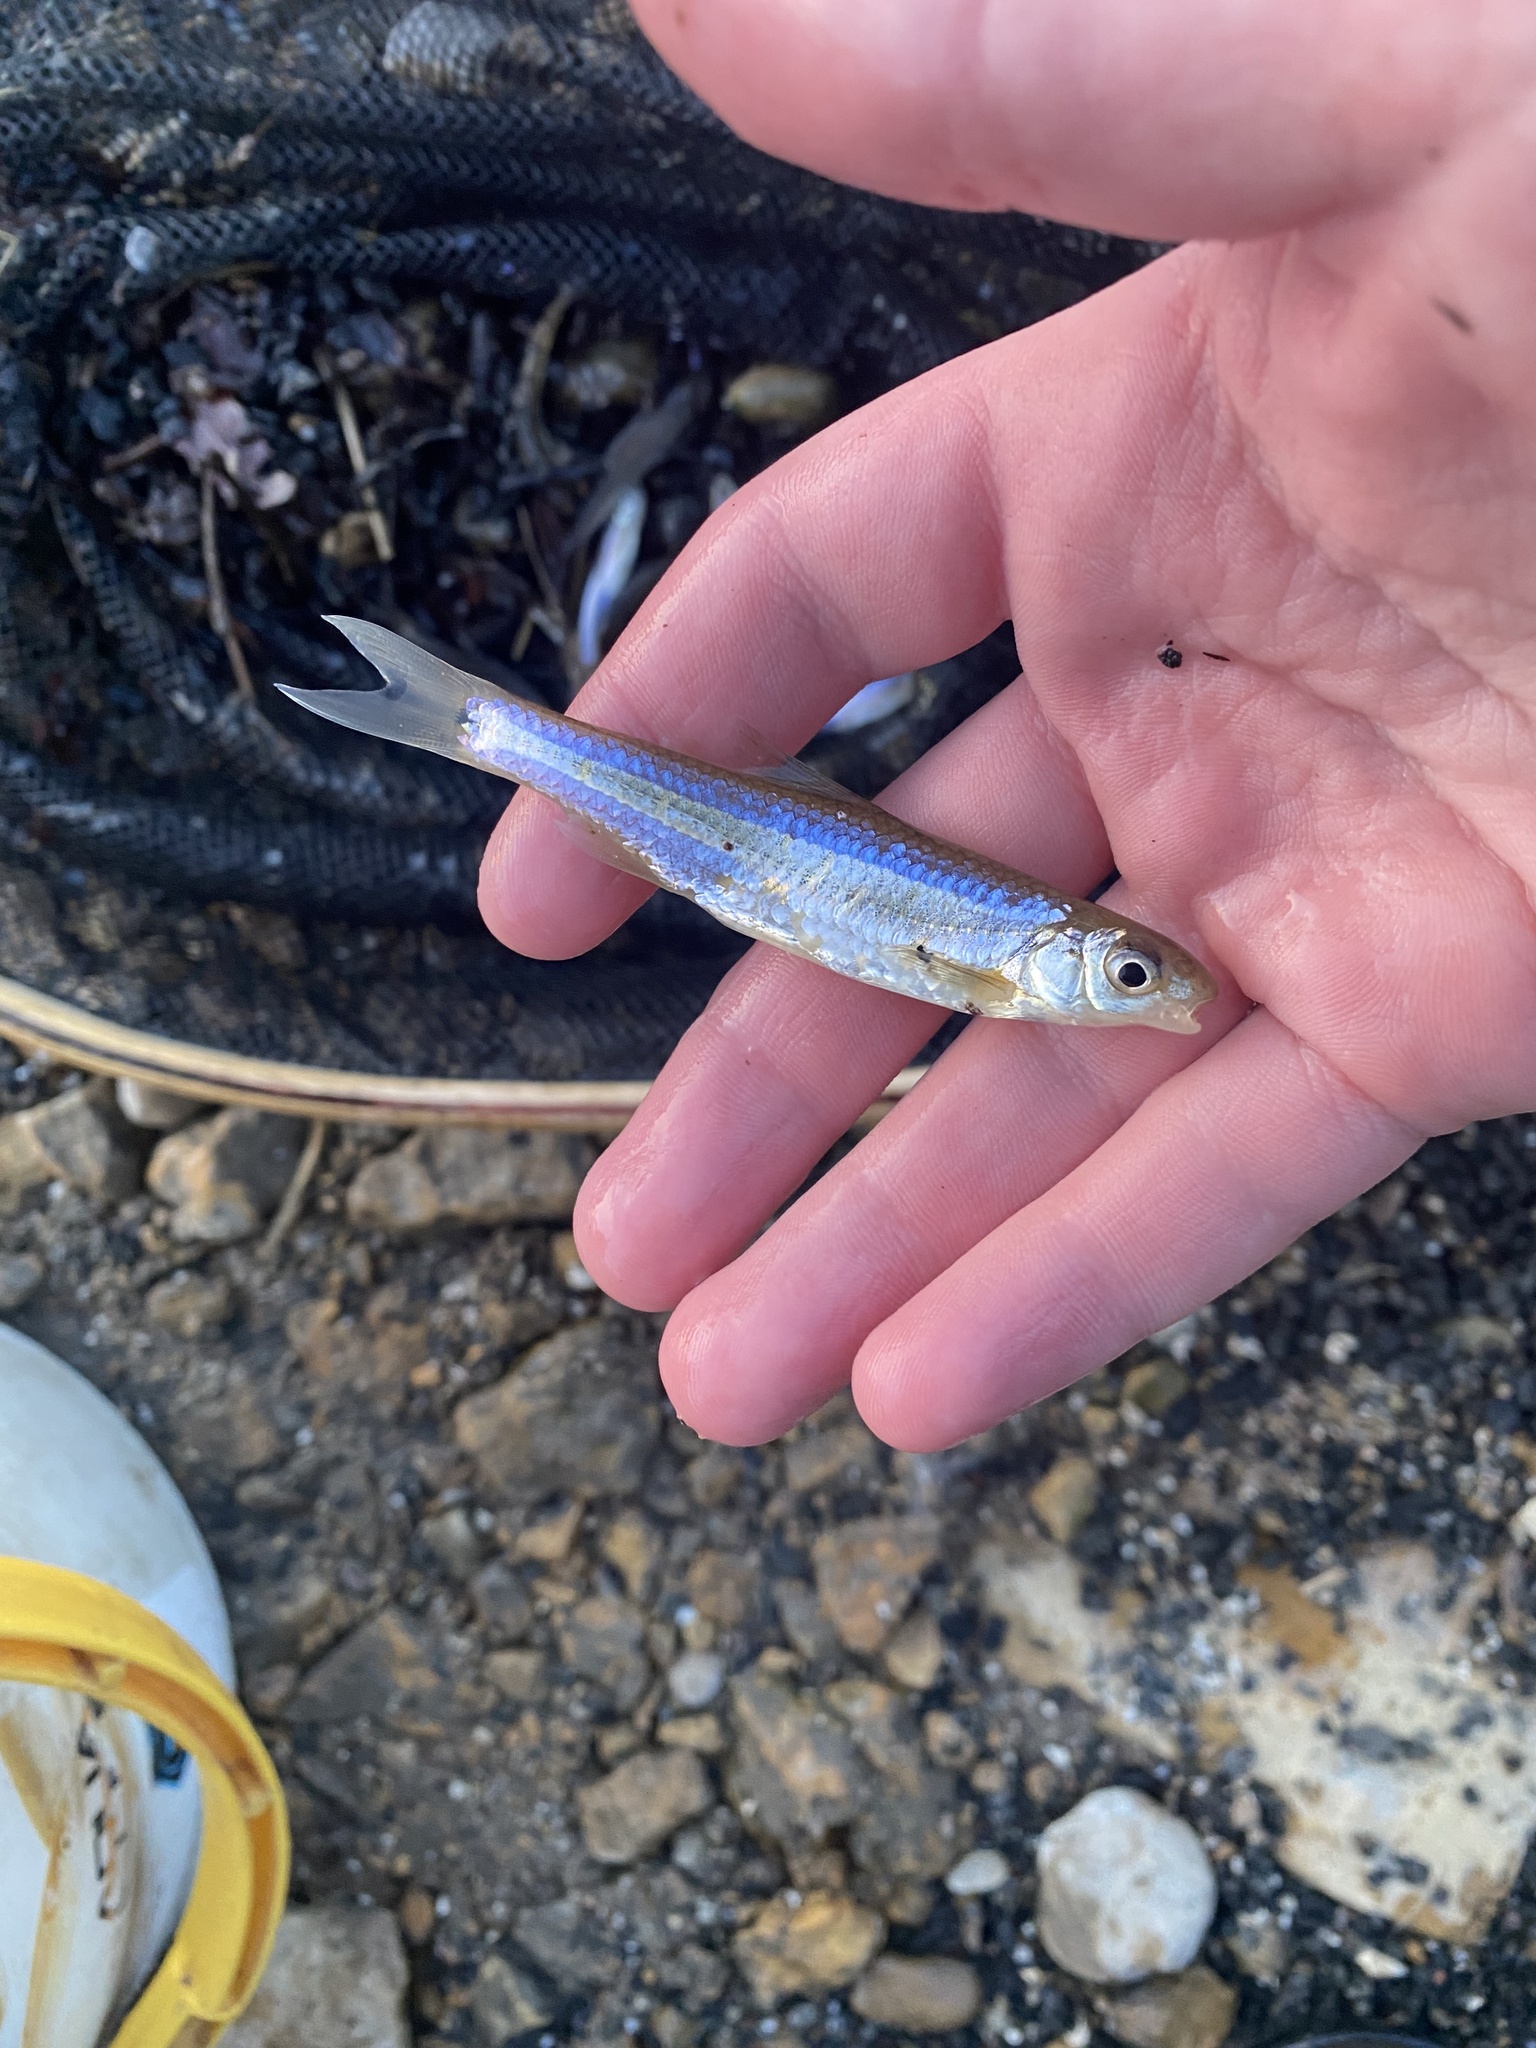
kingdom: Animalia
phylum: Chordata
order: Cypriniformes
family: Cyprinidae
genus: Notropis
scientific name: Notropis
